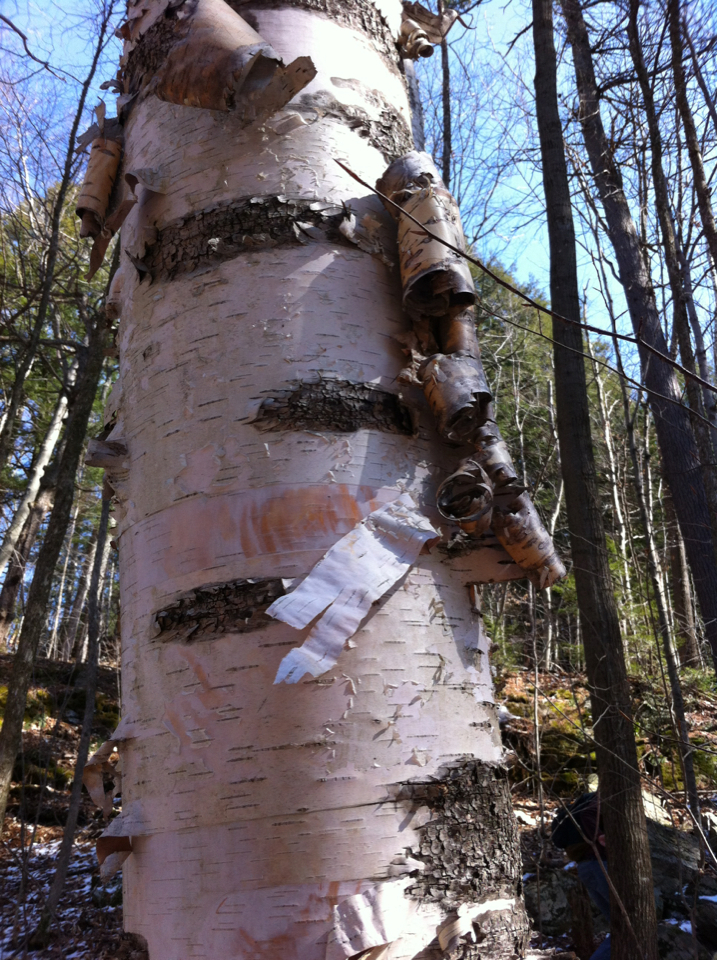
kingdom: Plantae
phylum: Tracheophyta
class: Magnoliopsida
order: Fagales
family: Betulaceae
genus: Betula
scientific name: Betula papyrifera
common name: Paper birch
